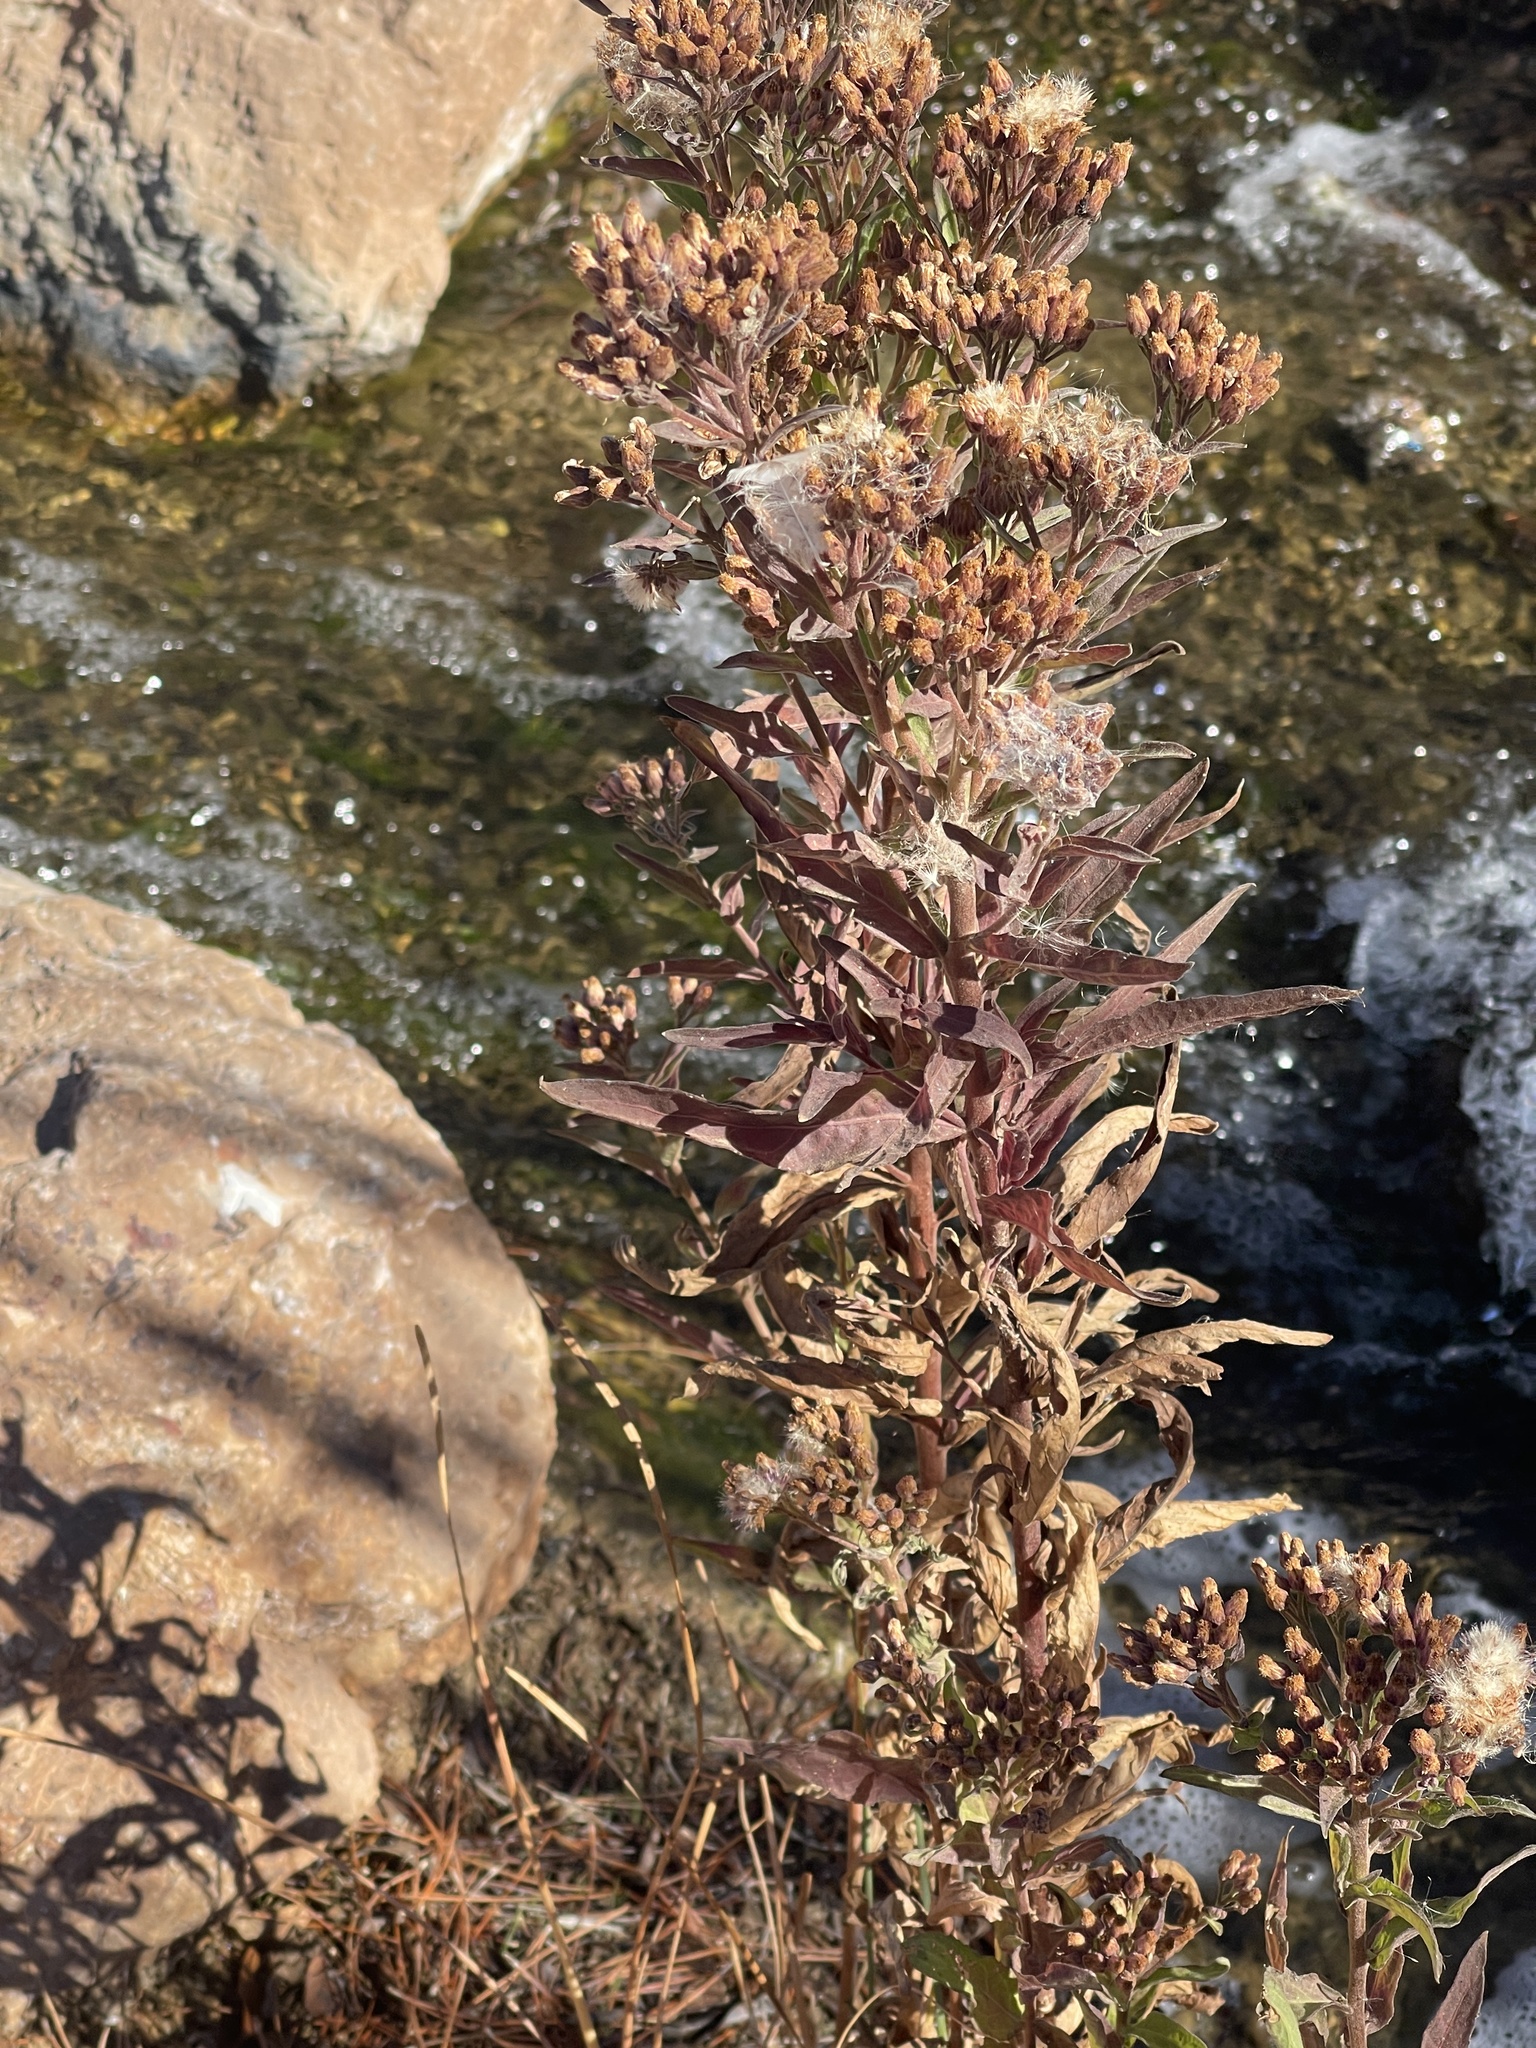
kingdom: Plantae
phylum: Tracheophyta
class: Magnoliopsida
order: Asterales
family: Asteraceae
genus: Pluchea
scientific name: Pluchea odorata
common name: Saltmarsh fleabane
